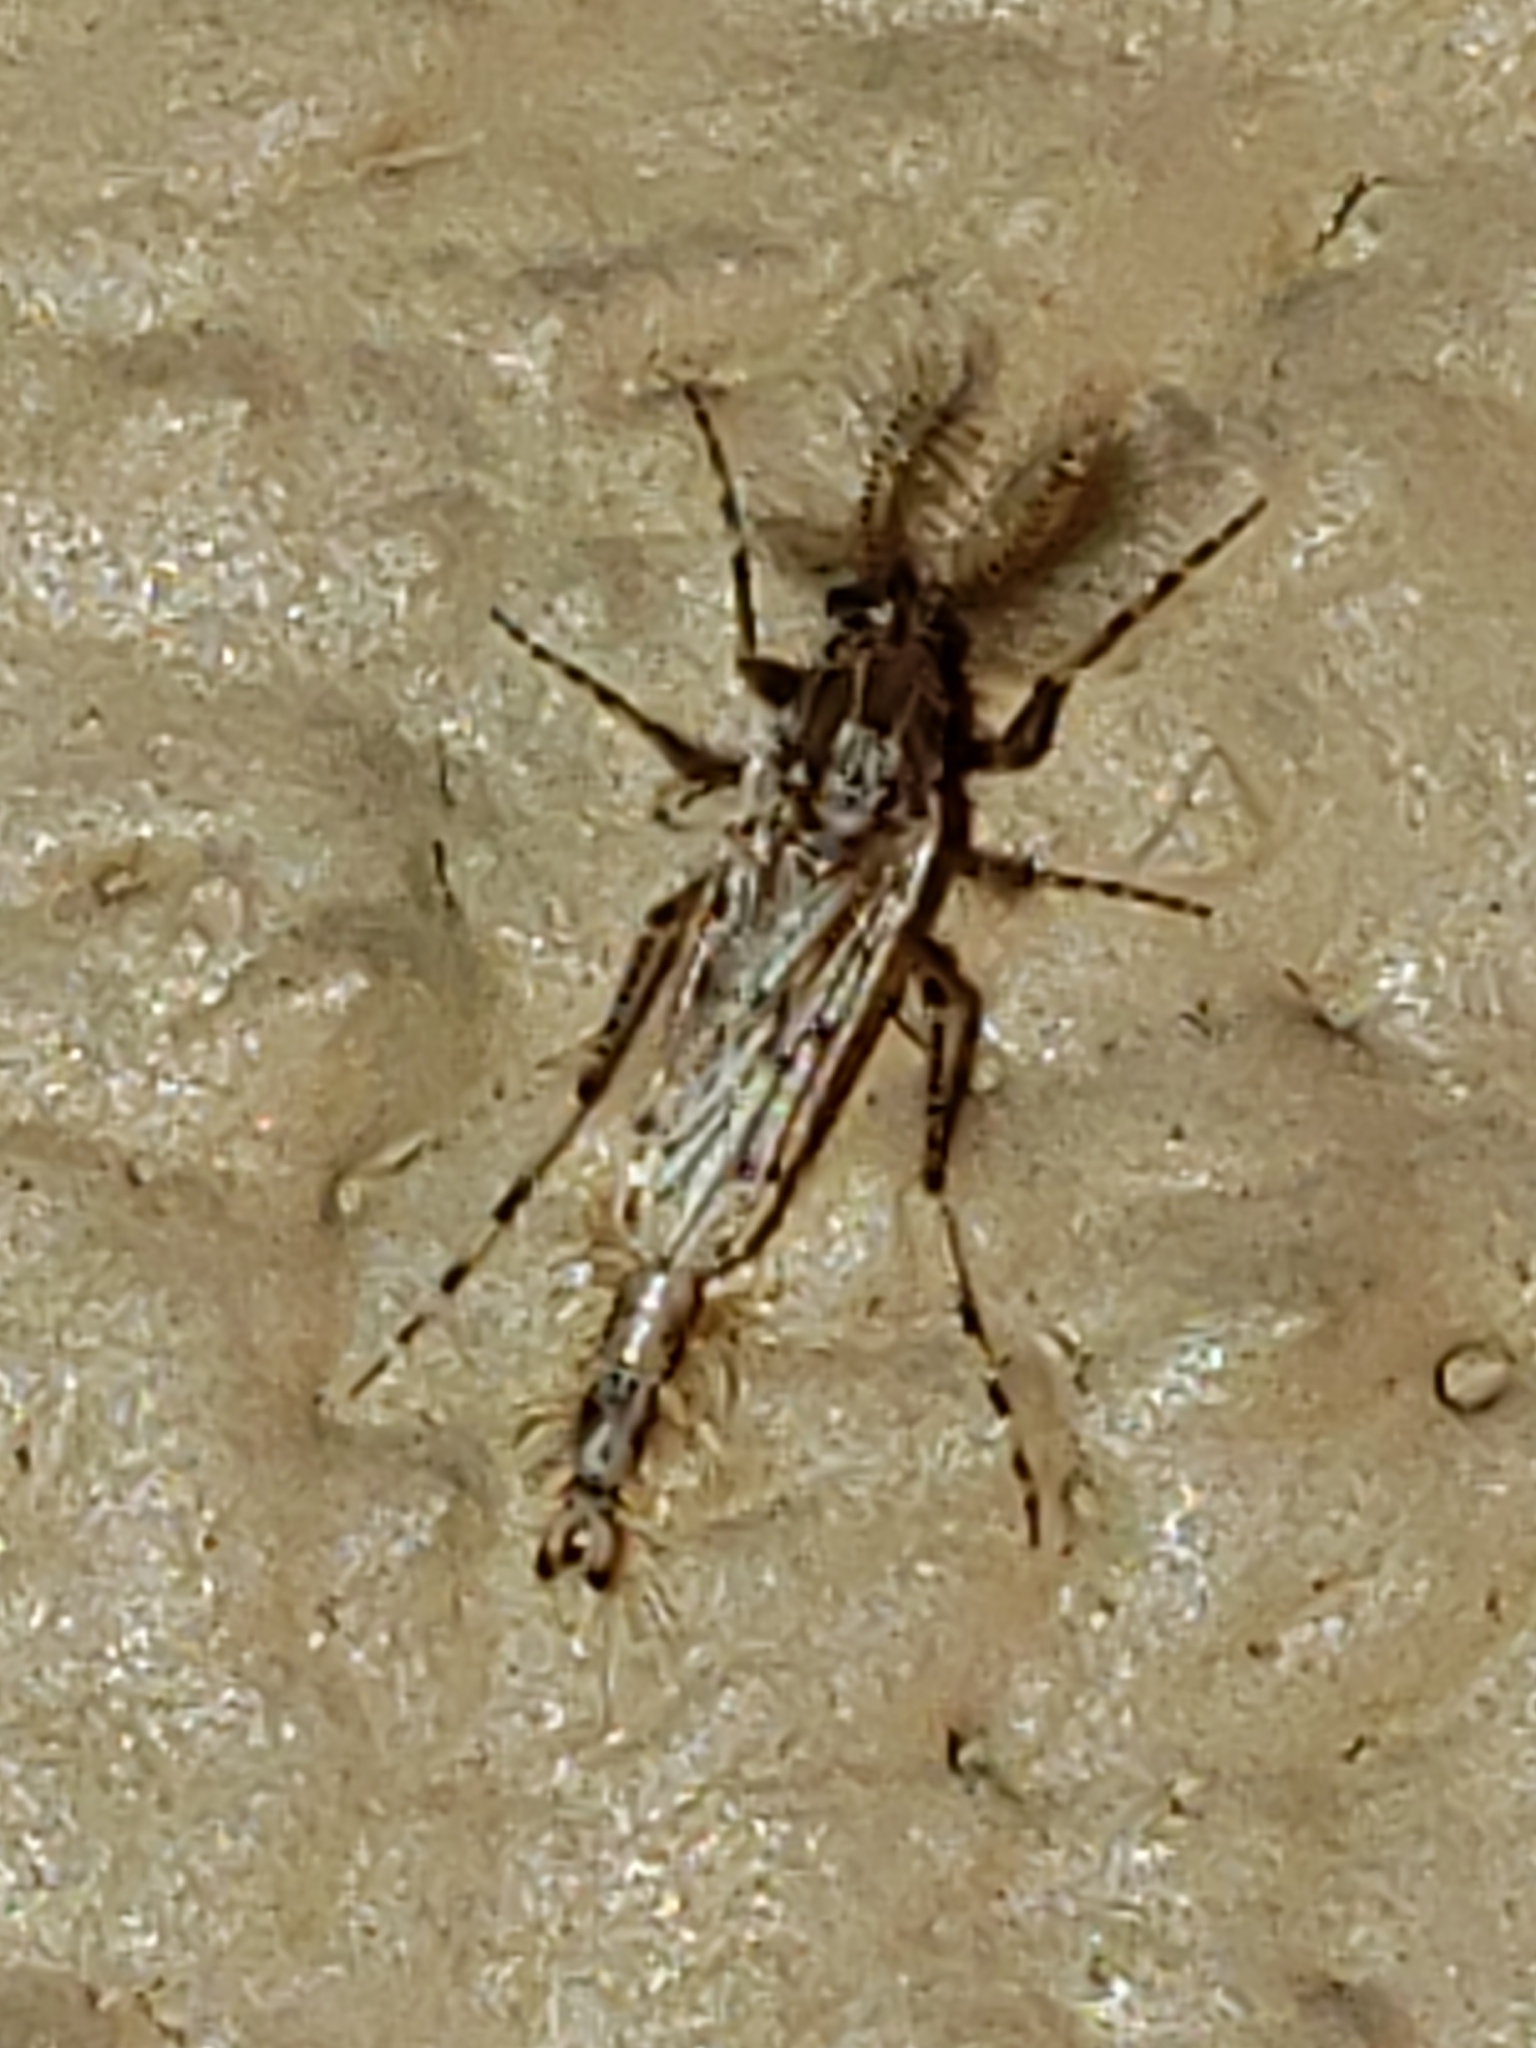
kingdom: Animalia
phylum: Arthropoda
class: Insecta
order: Diptera
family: Chaoboridae
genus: Chaoborus
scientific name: Chaoborus punctipennis
